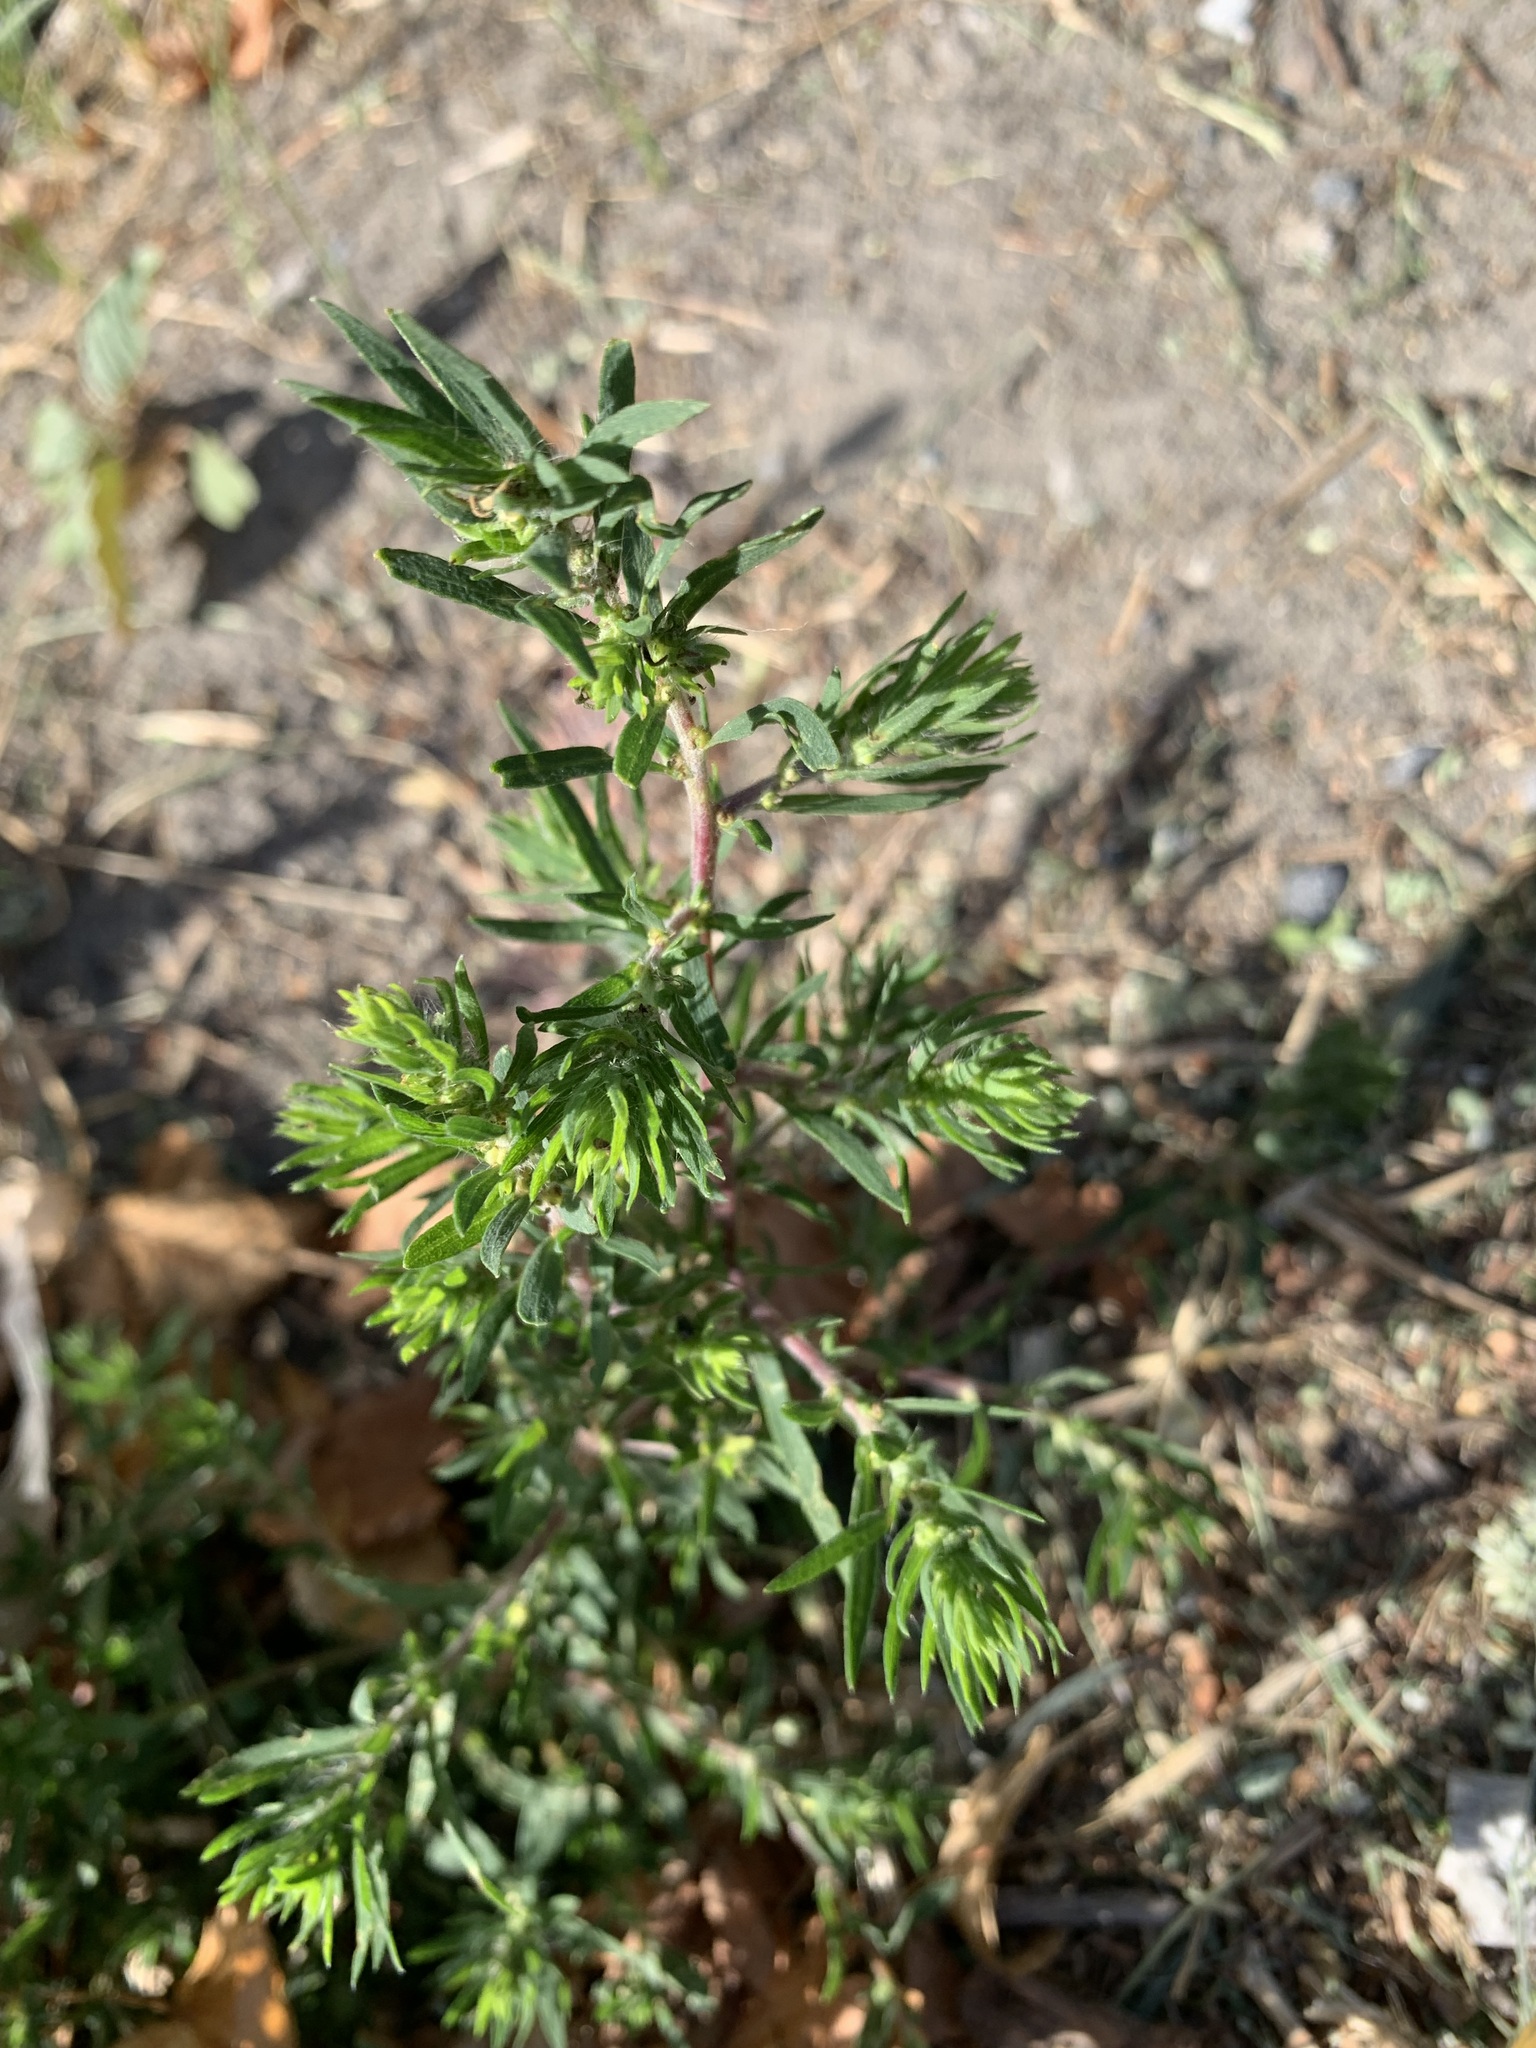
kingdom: Plantae
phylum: Tracheophyta
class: Magnoliopsida
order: Caryophyllales
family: Amaranthaceae
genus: Bassia
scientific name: Bassia scoparia
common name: Belvedere
